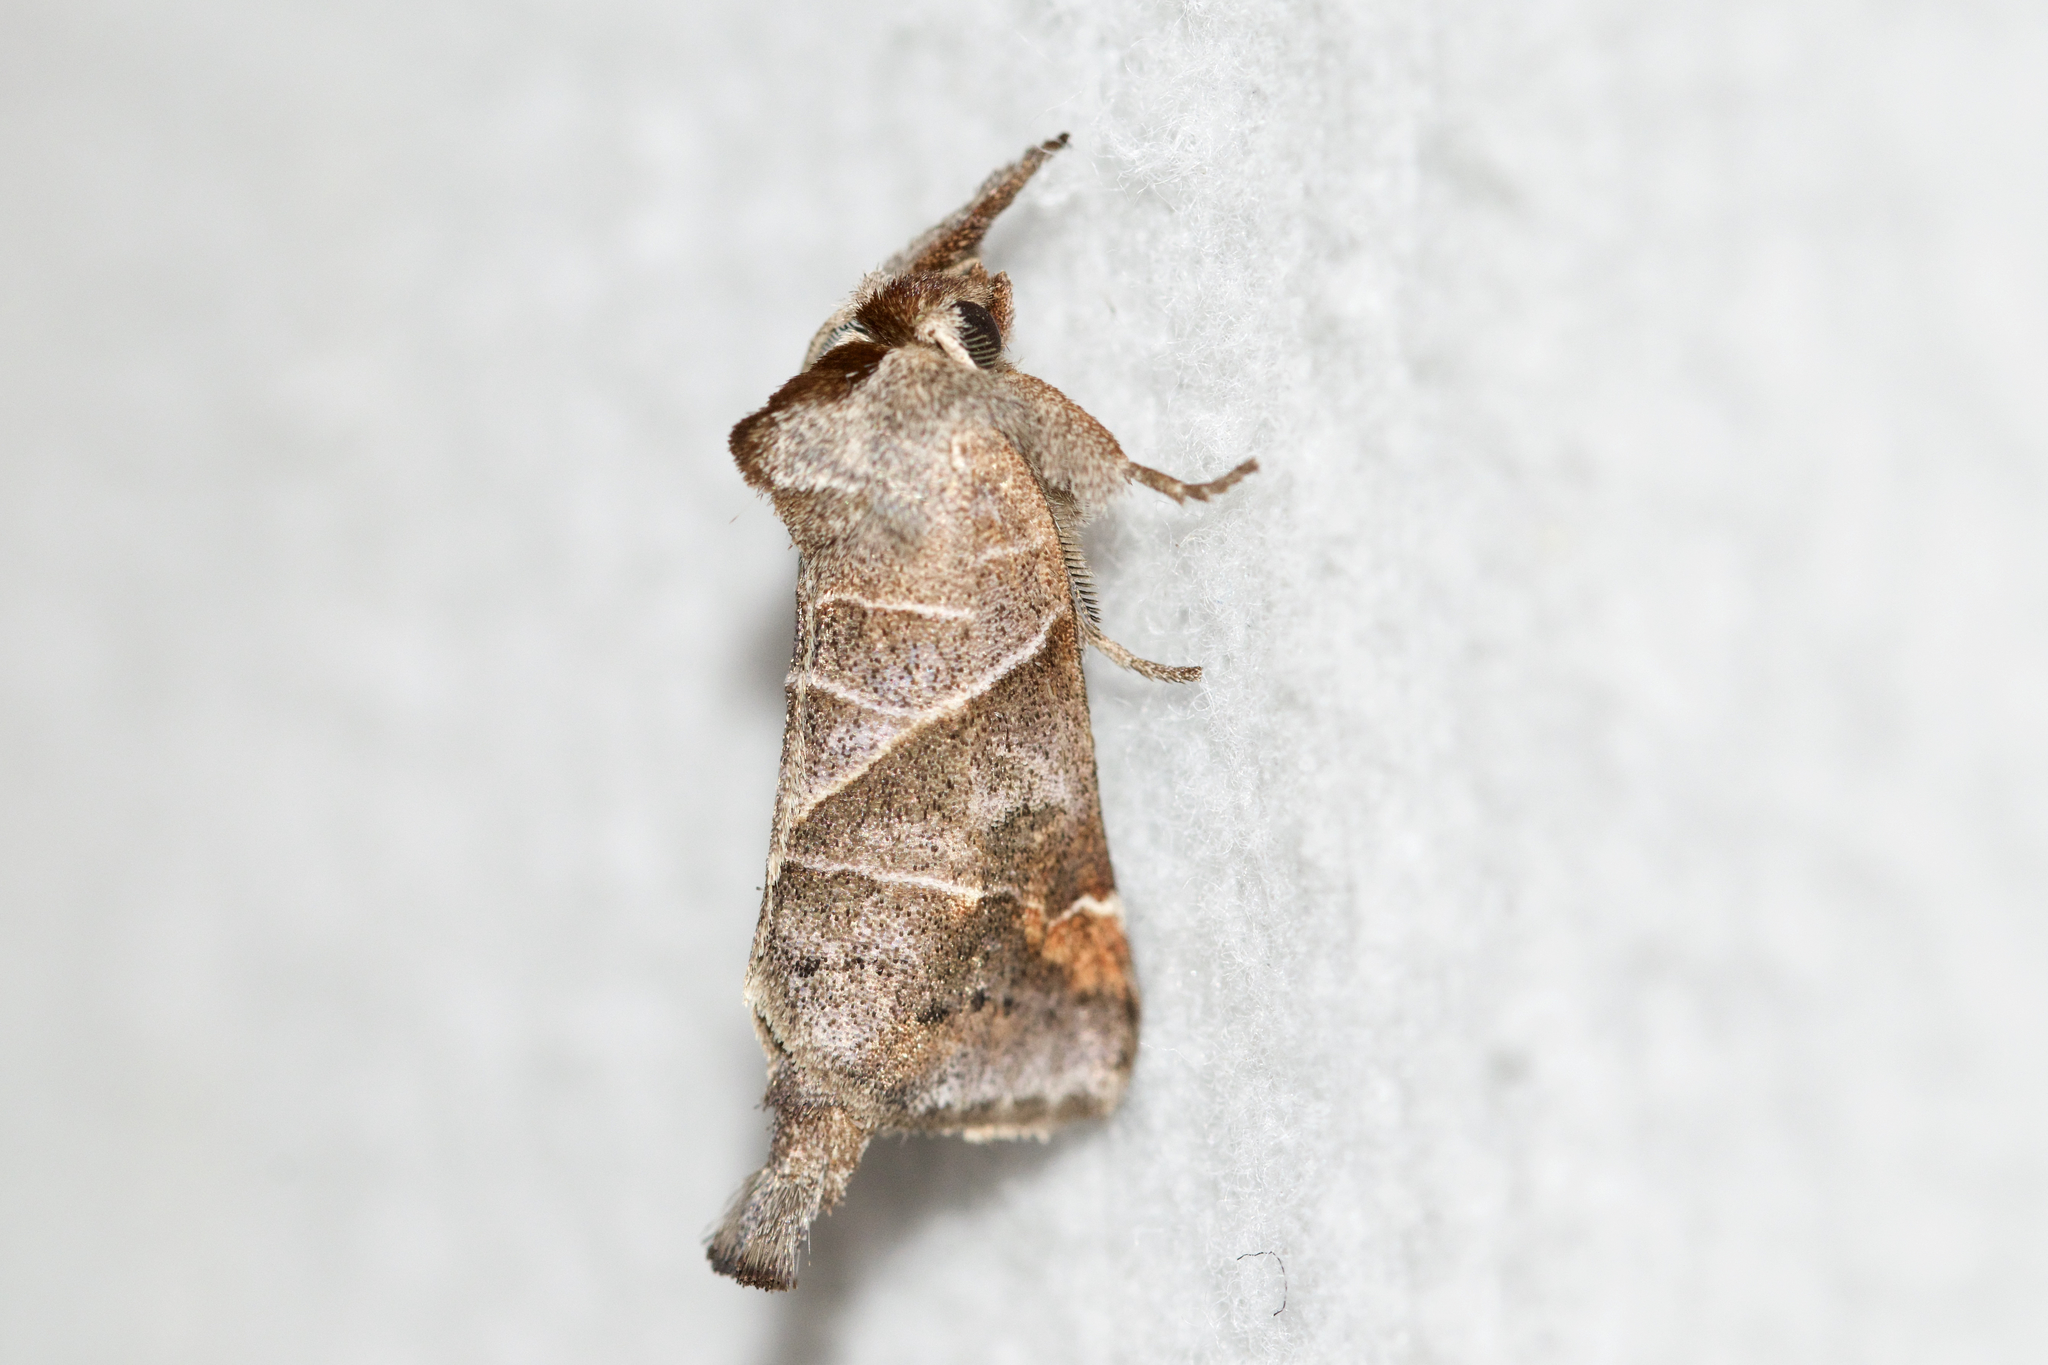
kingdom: Animalia
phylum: Arthropoda
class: Insecta
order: Lepidoptera
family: Notodontidae
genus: Clostera
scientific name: Clostera inclusa
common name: Angle-lined prominent
